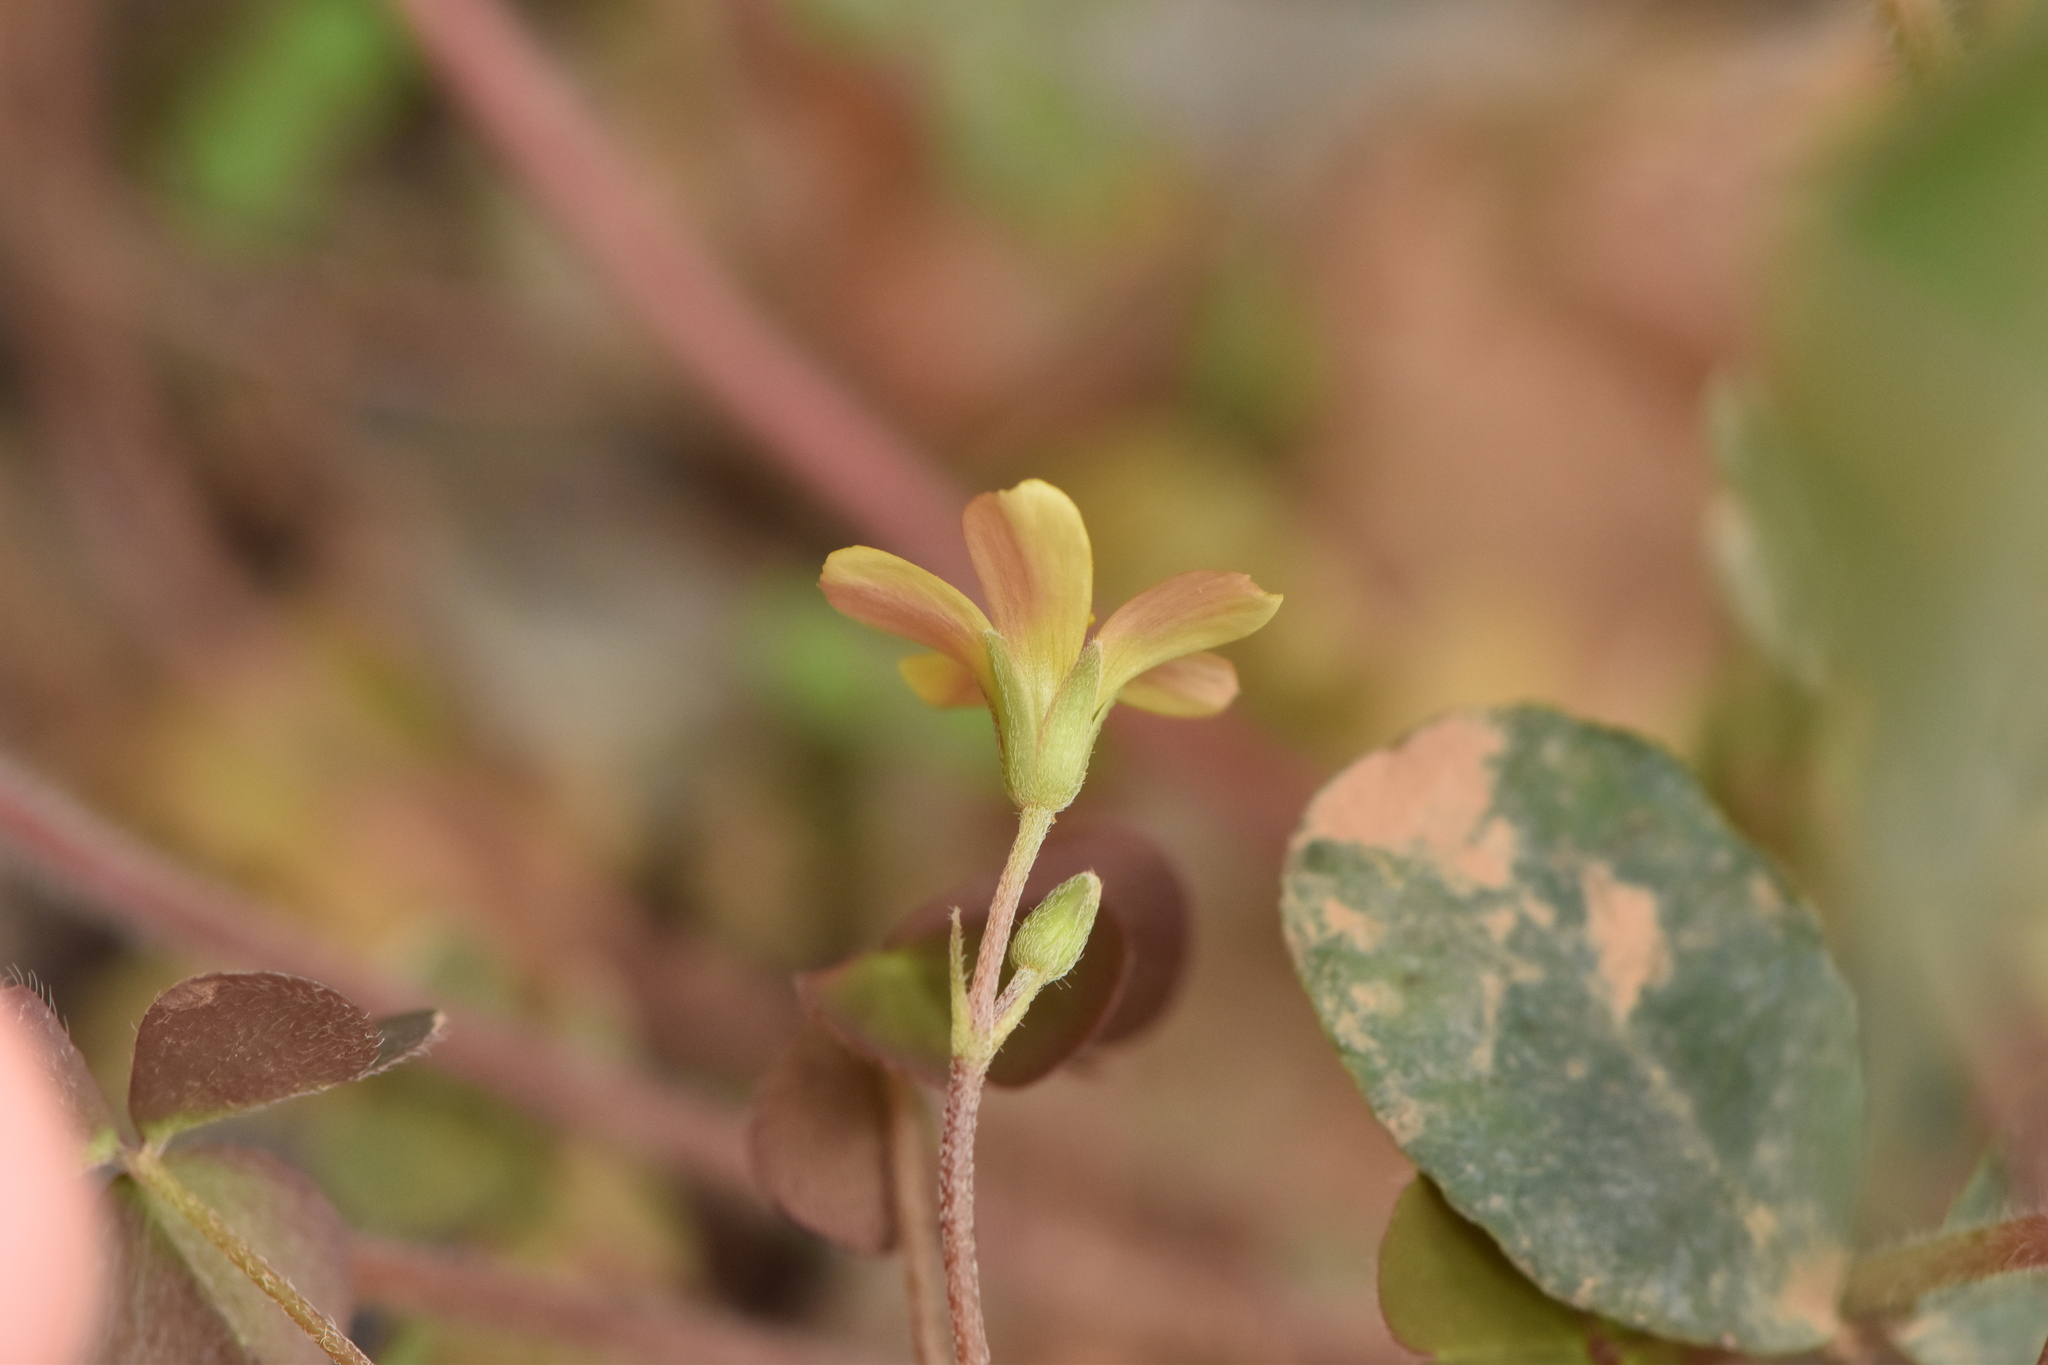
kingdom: Plantae
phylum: Tracheophyta
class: Magnoliopsida
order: Oxalidales
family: Oxalidaceae
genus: Oxalis
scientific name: Oxalis corniculata
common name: Procumbent yellow-sorrel
